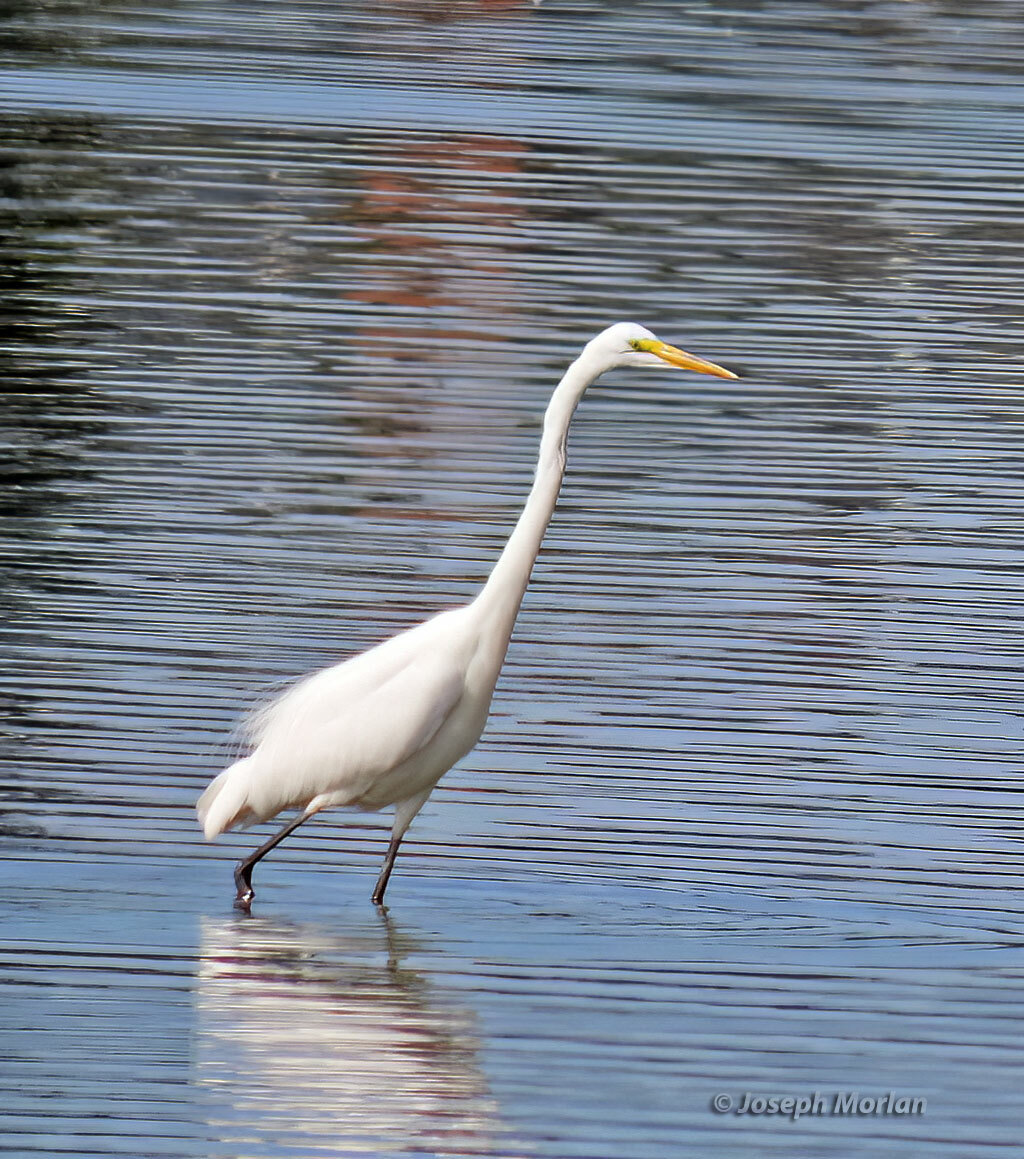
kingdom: Animalia
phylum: Chordata
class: Aves
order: Pelecaniformes
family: Ardeidae
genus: Ardea
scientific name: Ardea alba
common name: Great egret
